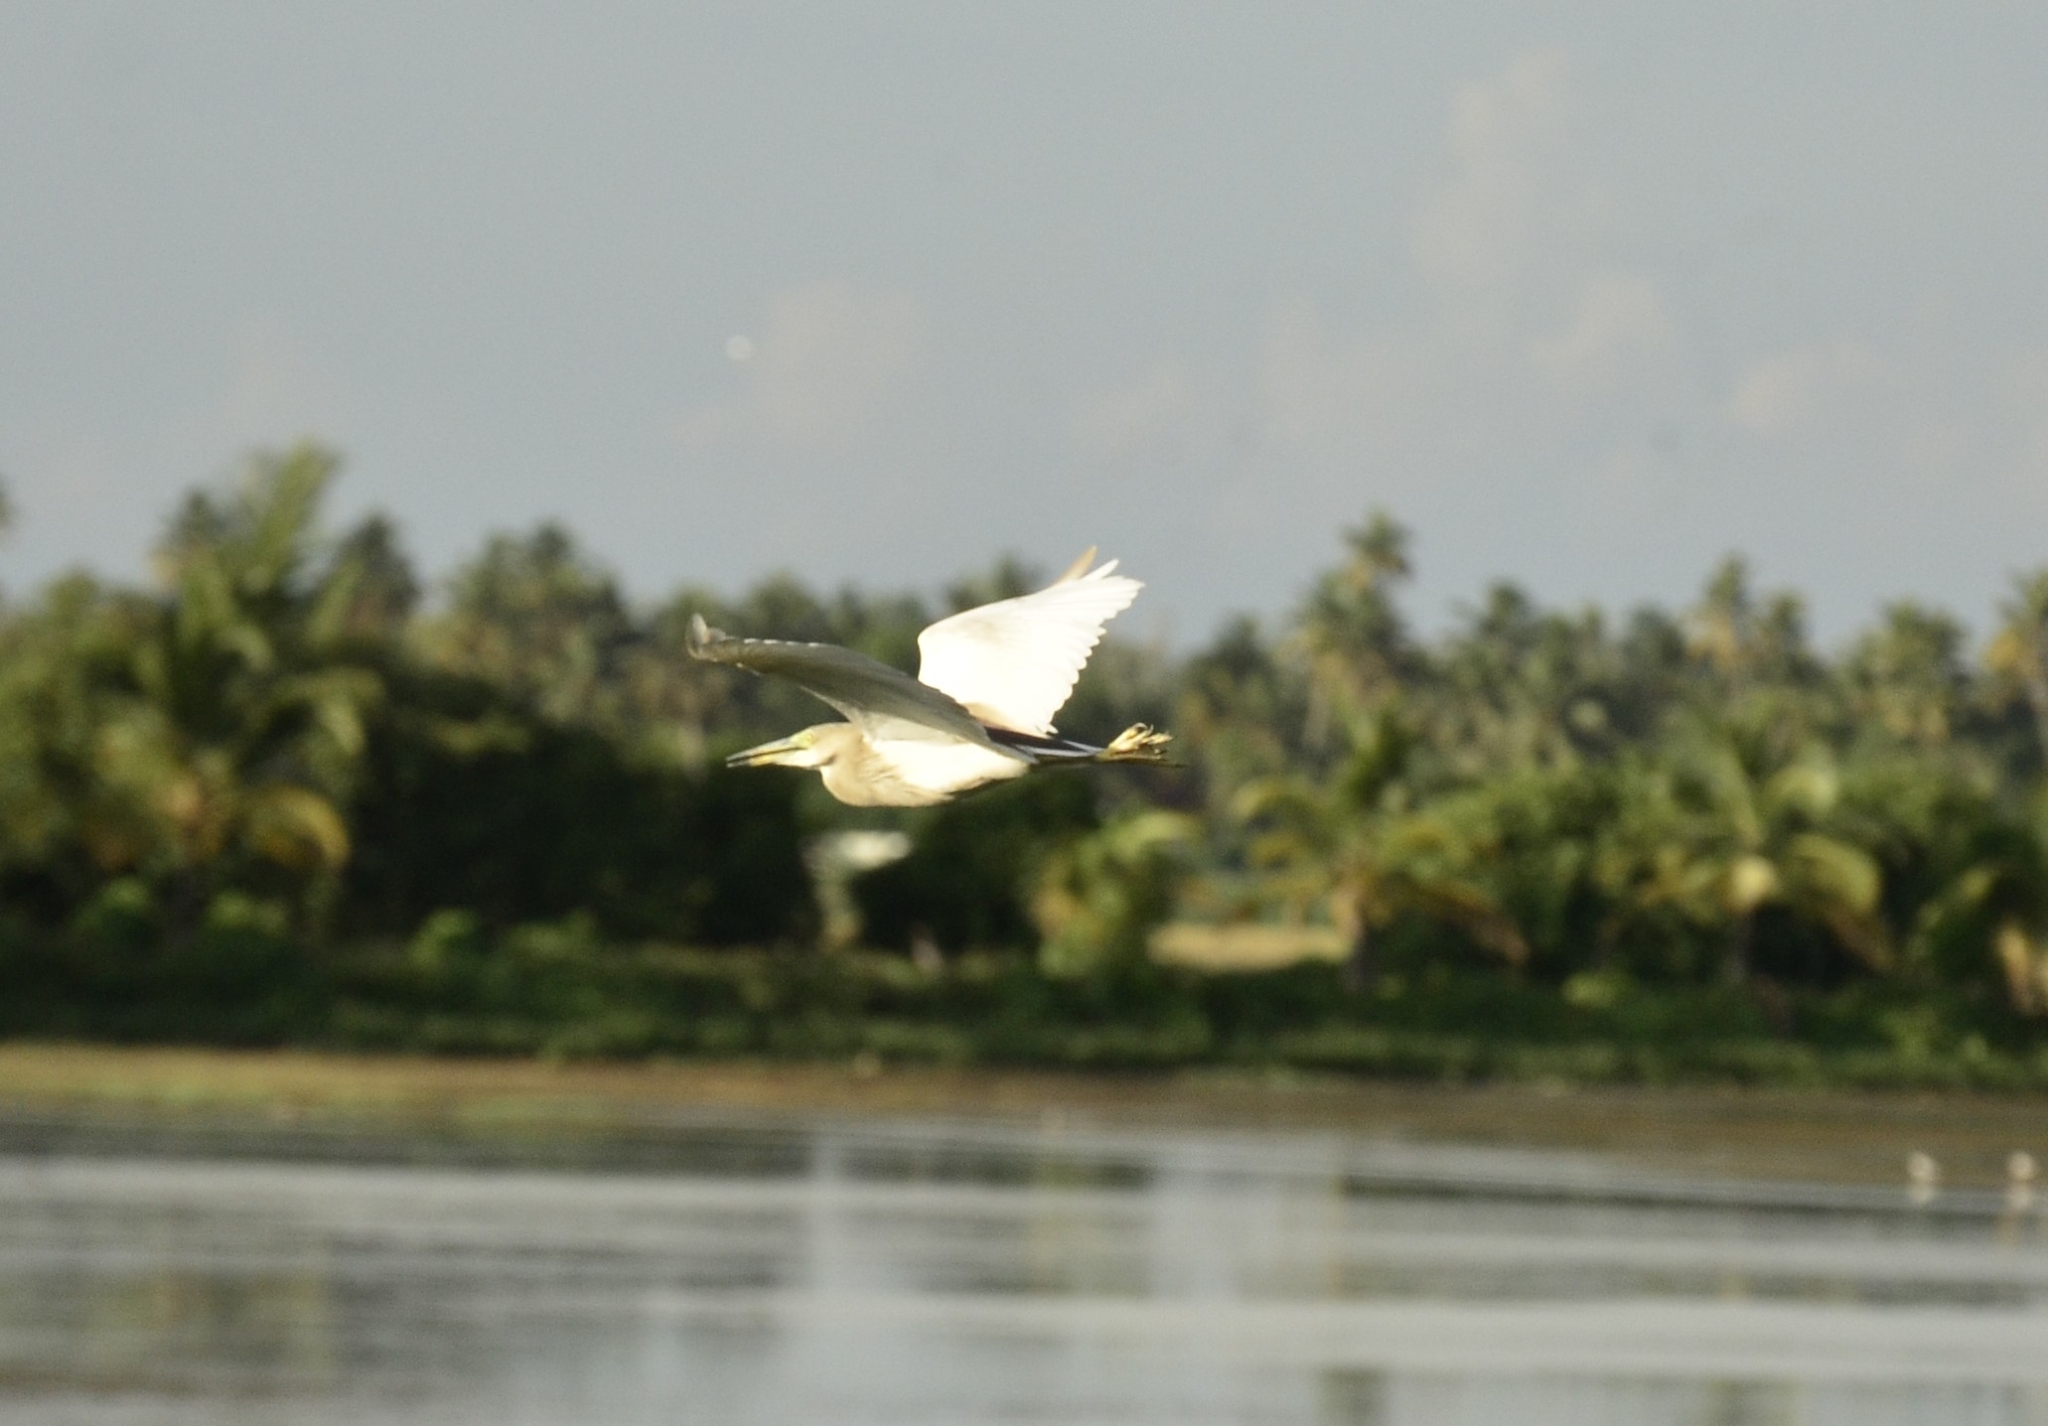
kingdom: Animalia
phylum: Chordata
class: Aves
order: Pelecaniformes
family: Ardeidae
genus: Ardeola
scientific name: Ardeola grayii
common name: Indian pond heron
